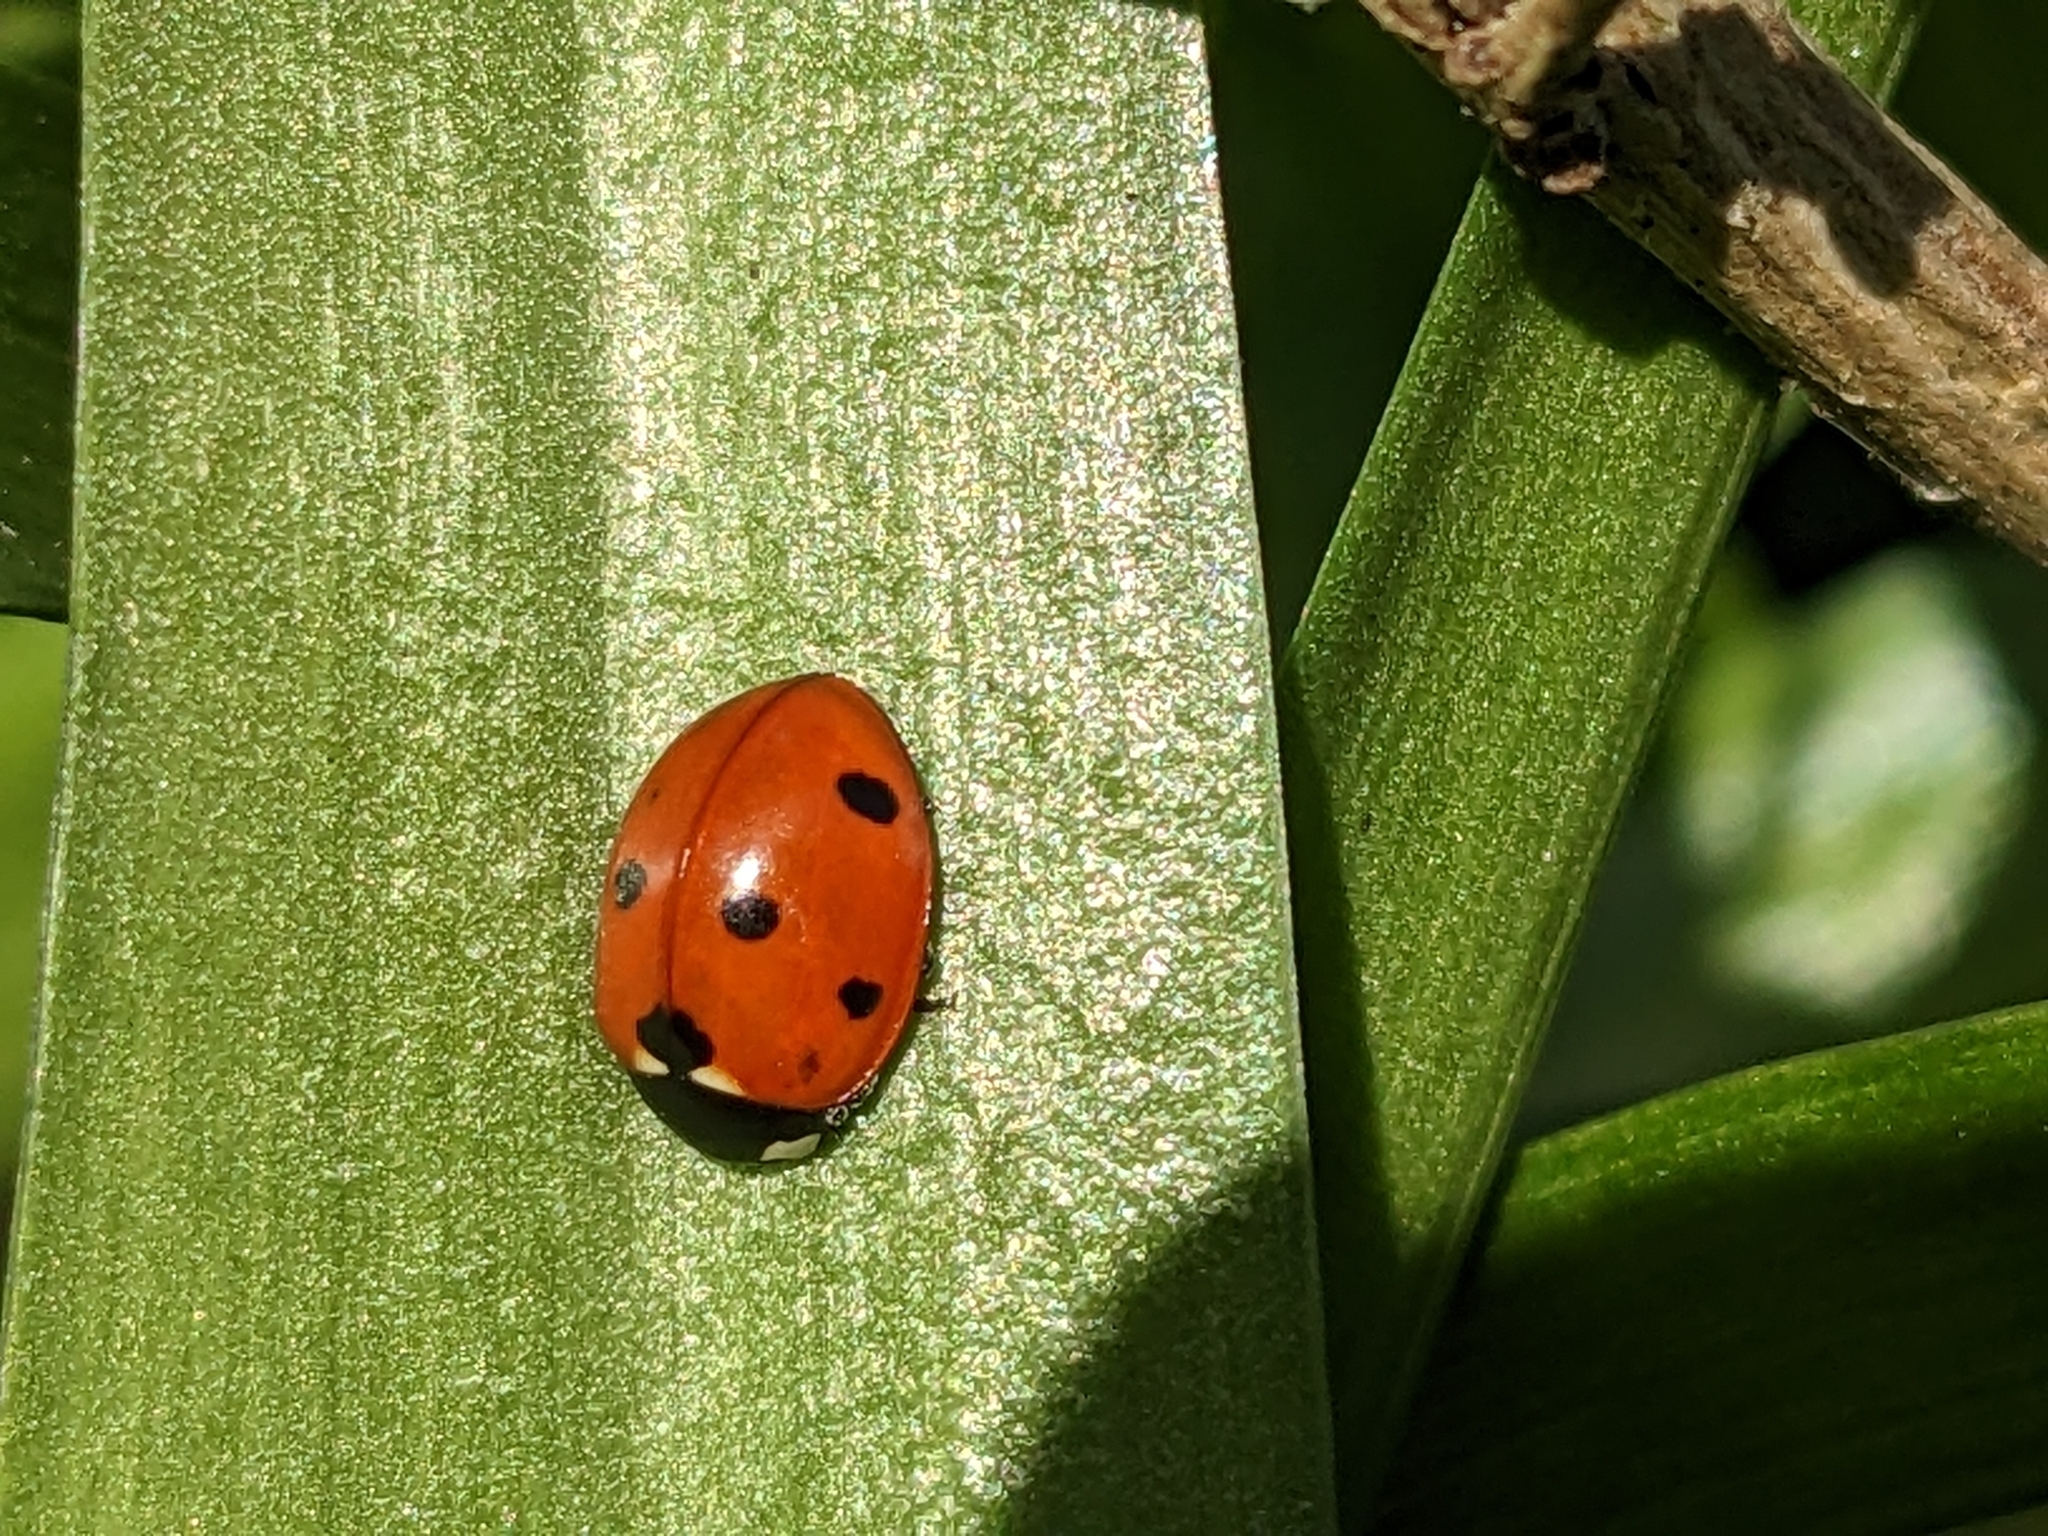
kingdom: Animalia
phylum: Arthropoda
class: Insecta
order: Coleoptera
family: Coccinellidae
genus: Coccinella
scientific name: Coccinella septempunctata
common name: Sevenspotted lady beetle
